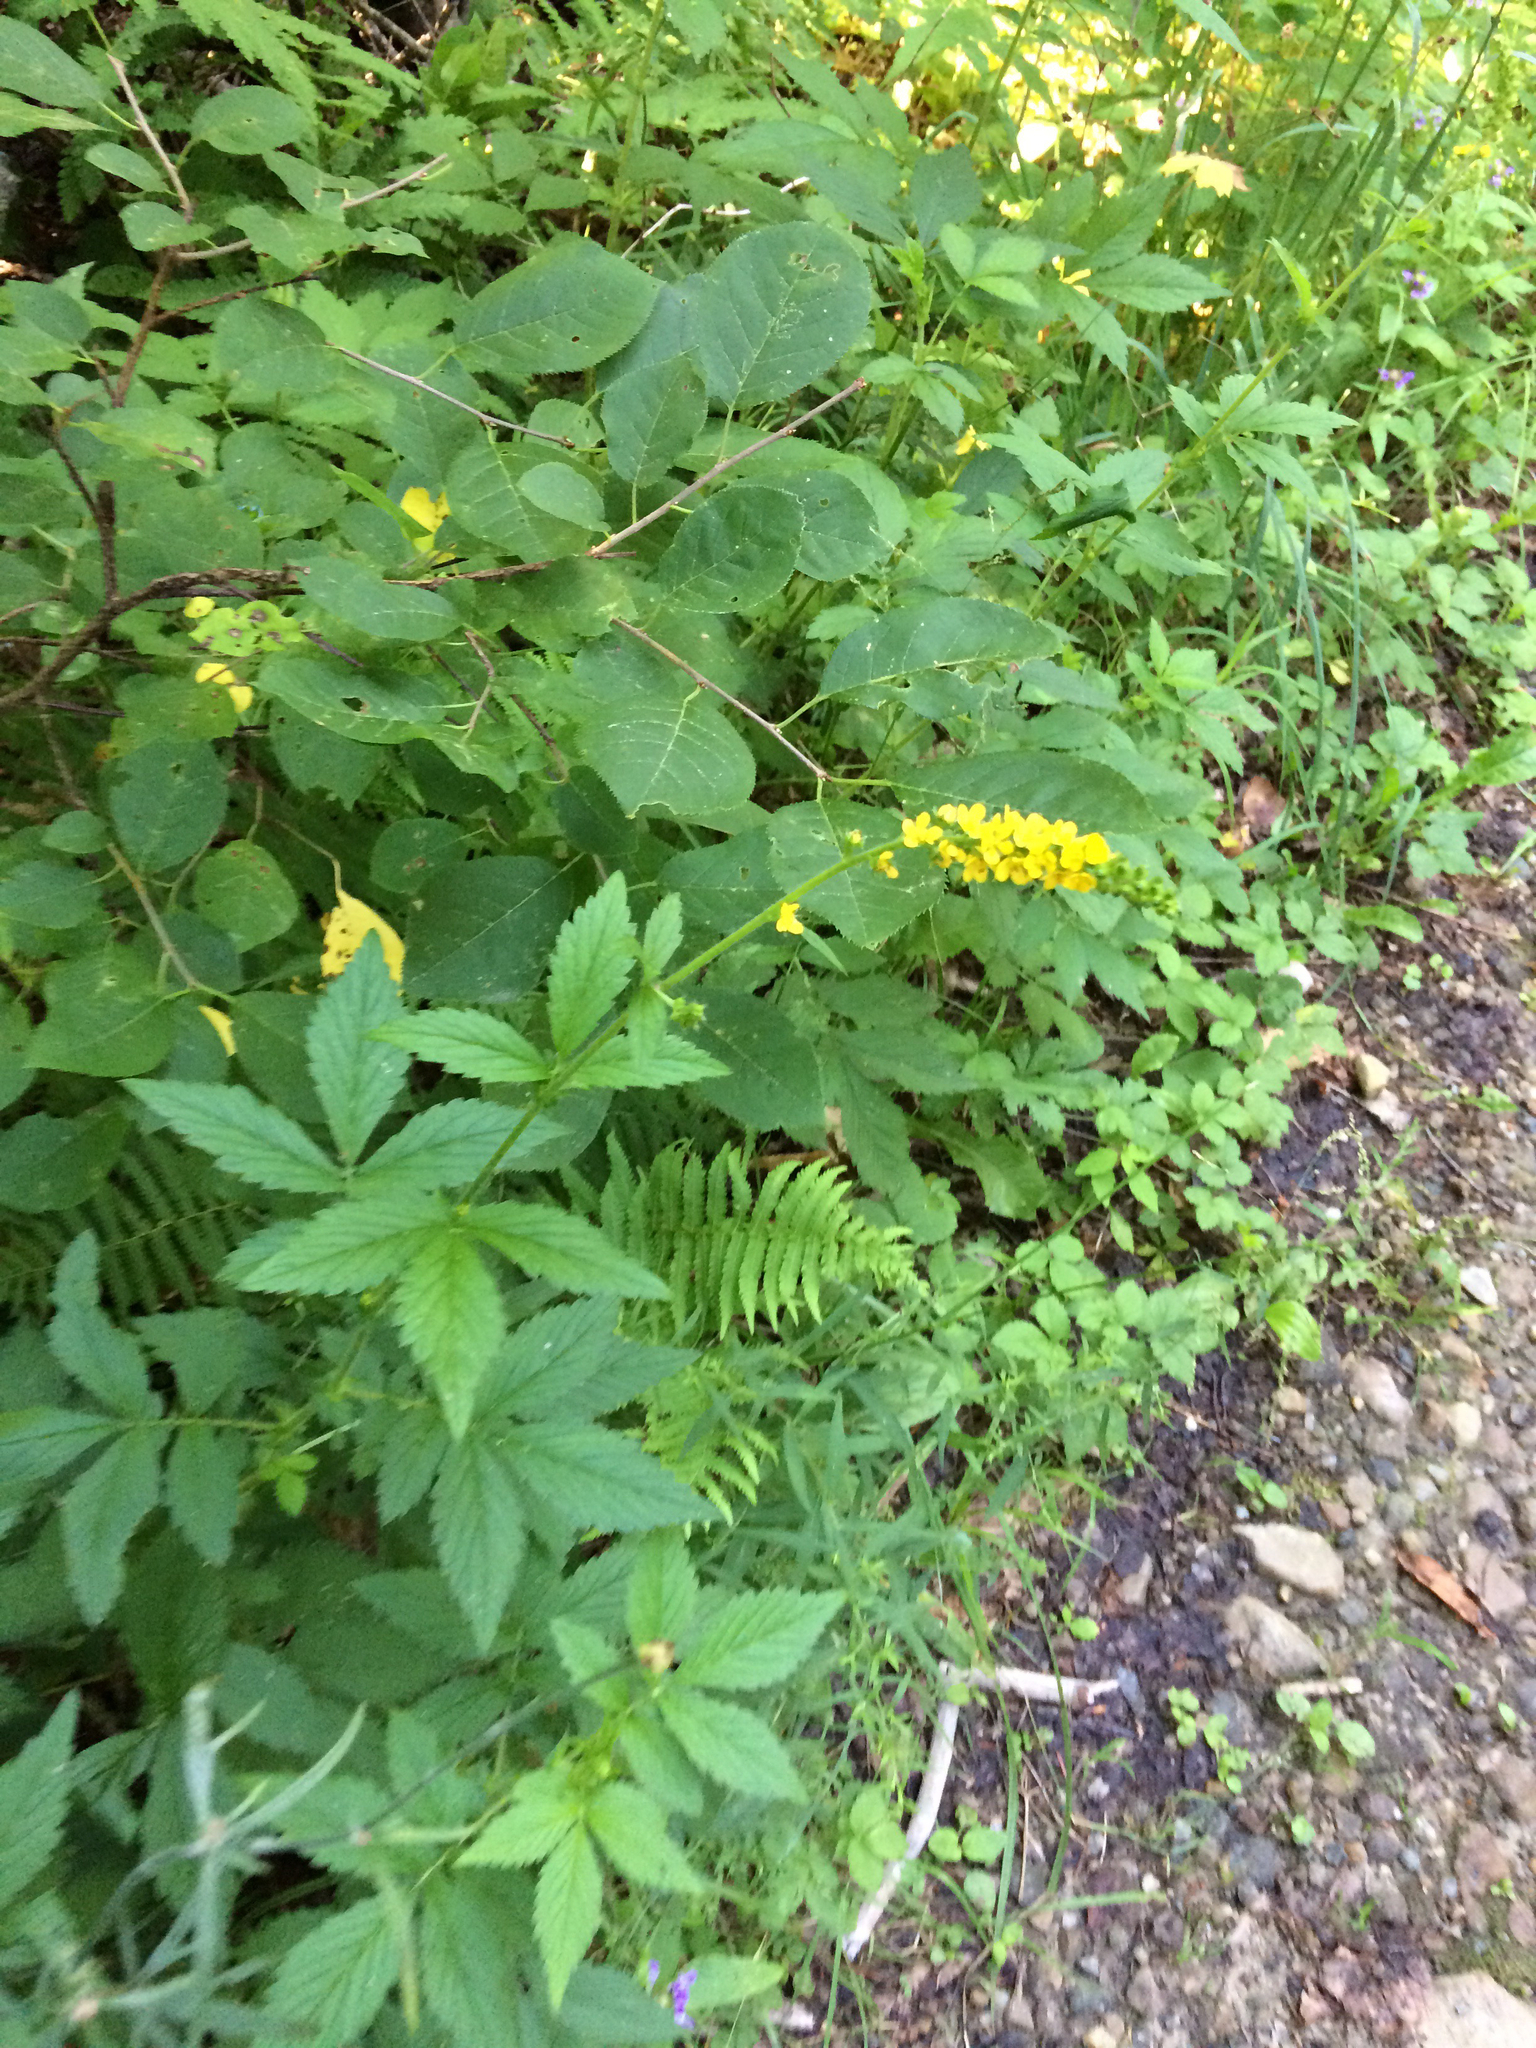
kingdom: Plantae
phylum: Tracheophyta
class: Magnoliopsida
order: Rosales
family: Rosaceae
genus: Agrimonia
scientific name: Agrimonia gryposepala
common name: Common agrimony
